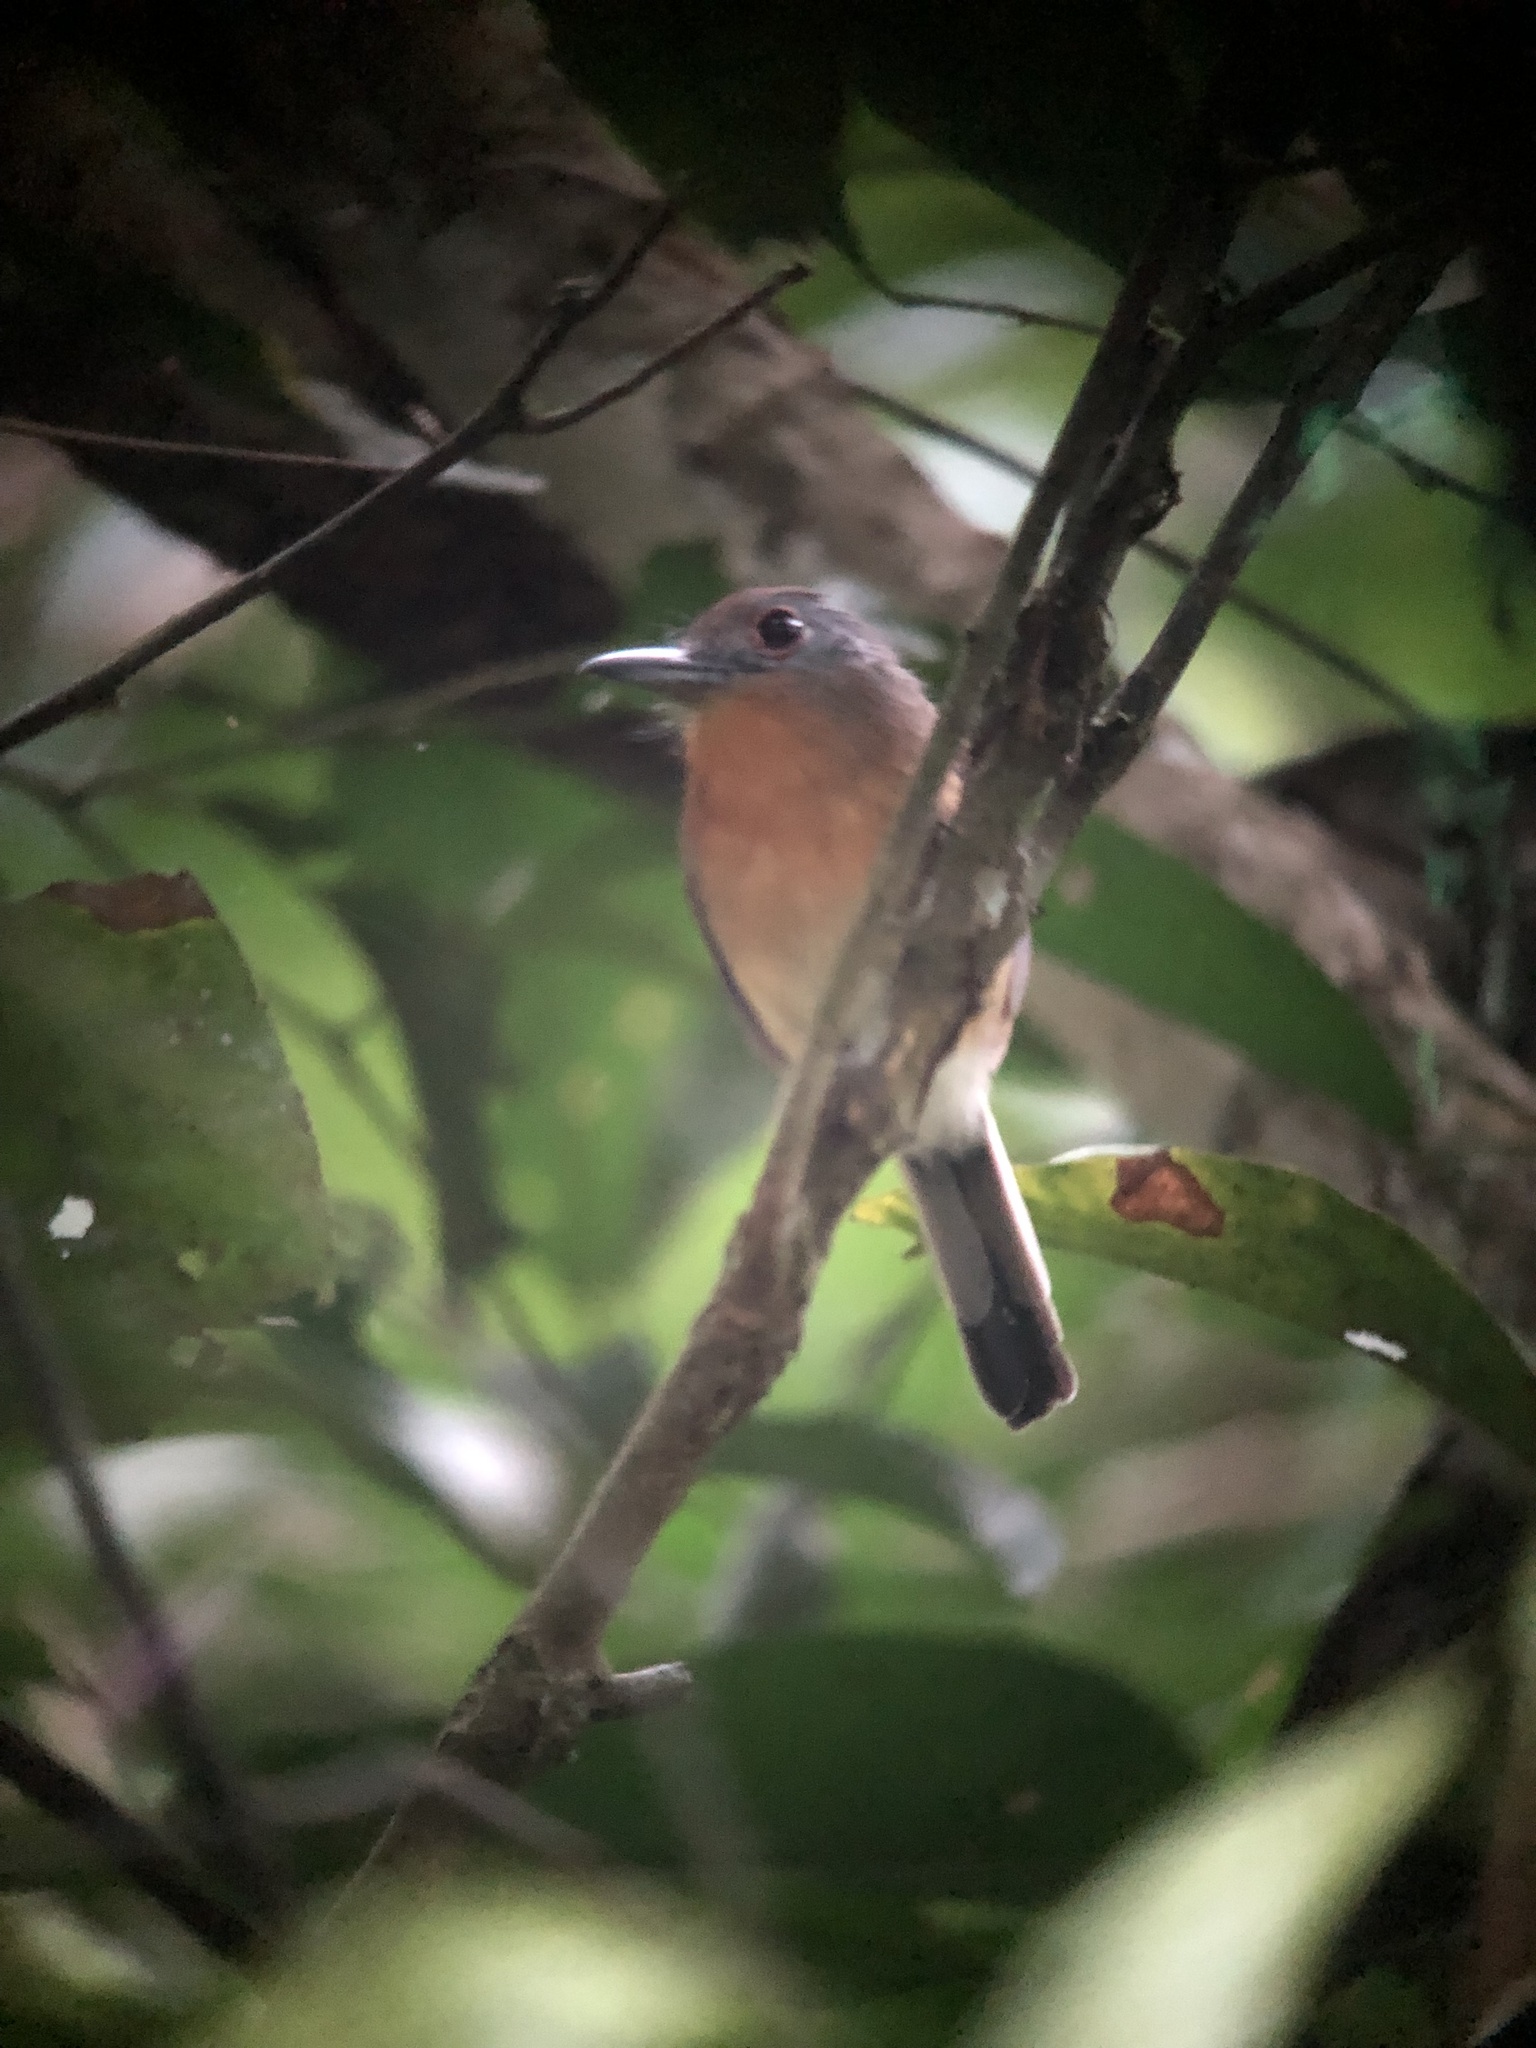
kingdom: Animalia
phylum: Chordata
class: Aves
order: Piciformes
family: Bucconidae
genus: Nonnula
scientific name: Nonnula frontalis
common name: Grey-cheeked nunlet
